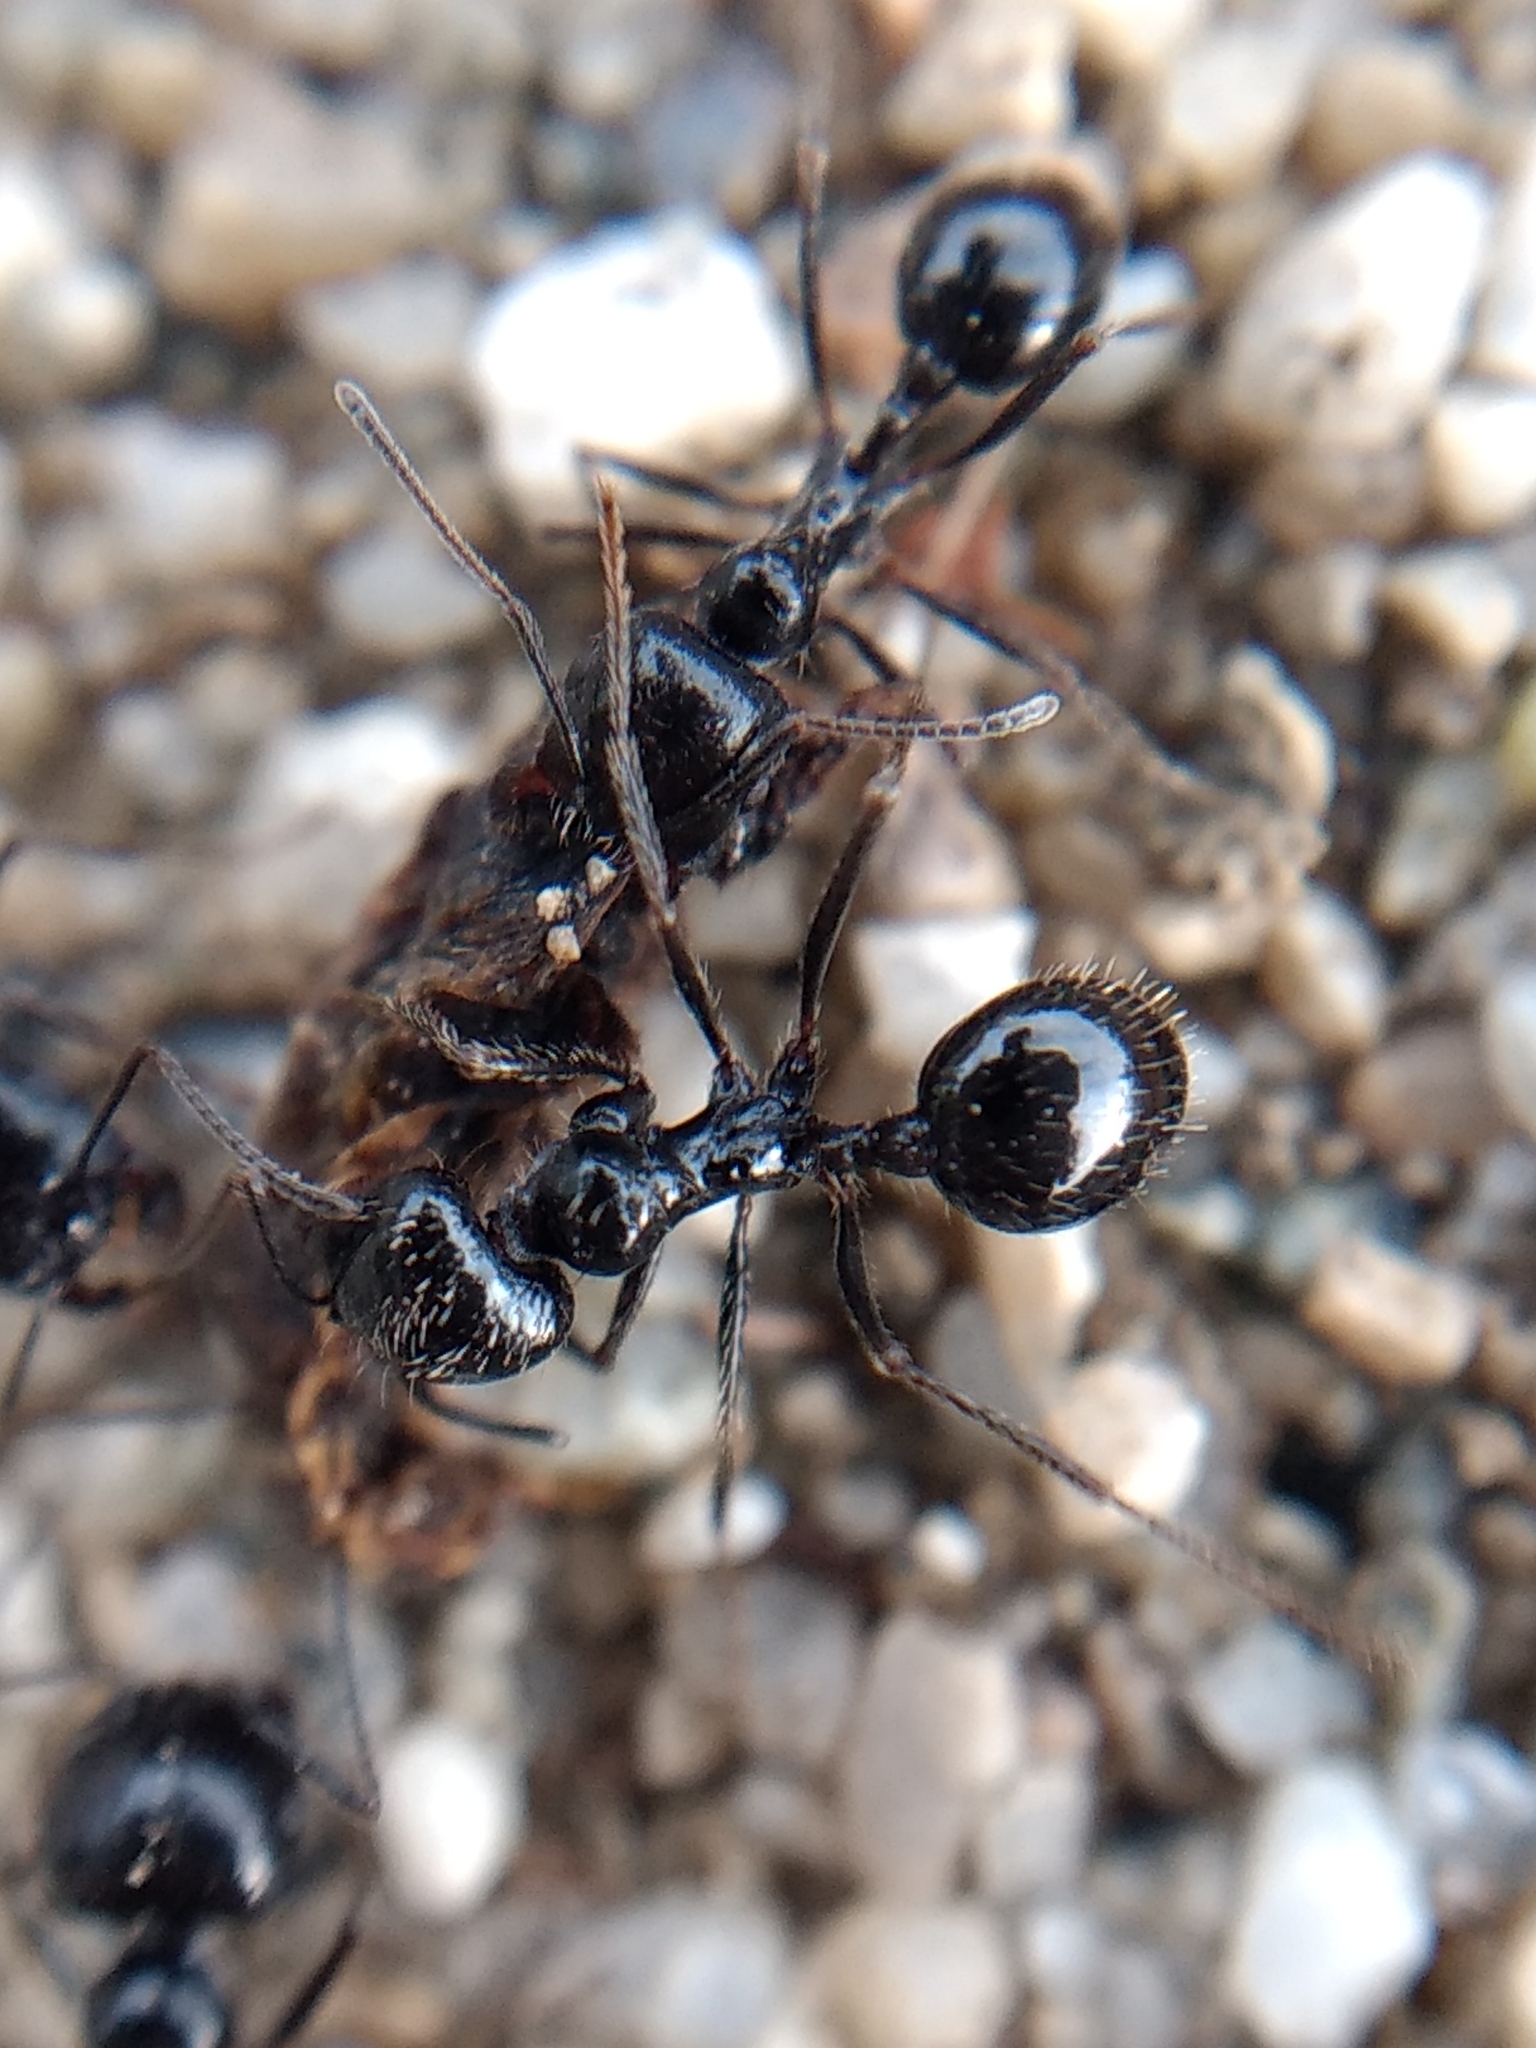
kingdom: Animalia
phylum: Arthropoda
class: Insecta
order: Hymenoptera
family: Formicidae
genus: Messor
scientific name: Messor pergandei
